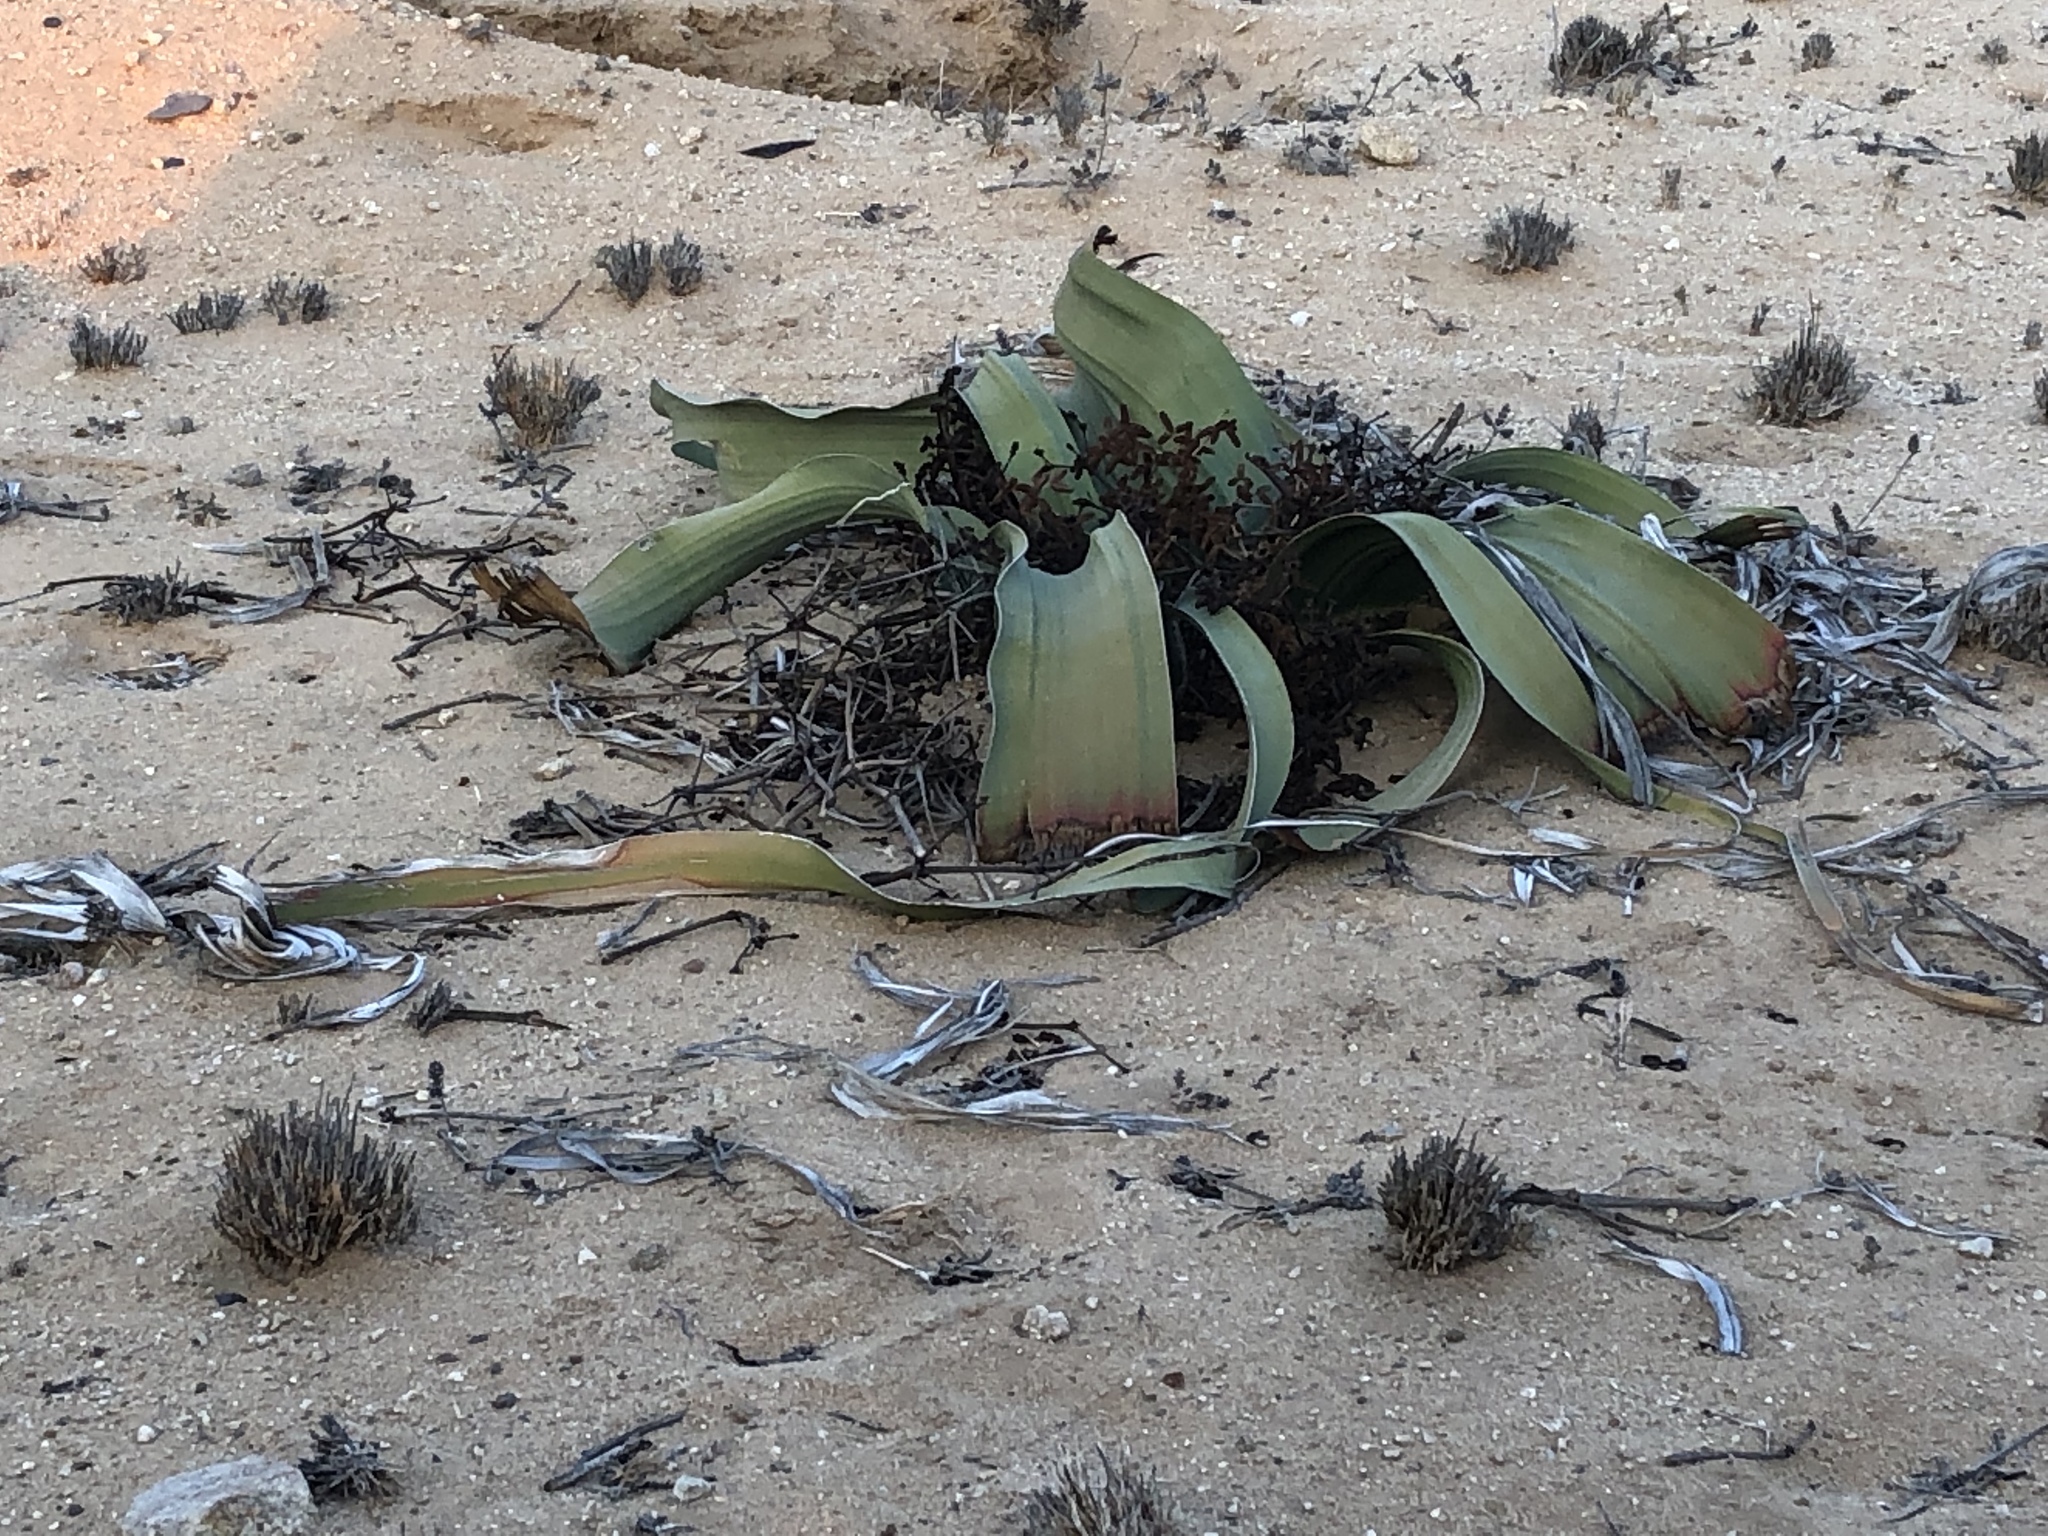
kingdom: Plantae
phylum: Tracheophyta
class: Gnetopsida
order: Welwitschiales
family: Welwitschiaceae
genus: Welwitschia
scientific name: Welwitschia mirabilis
